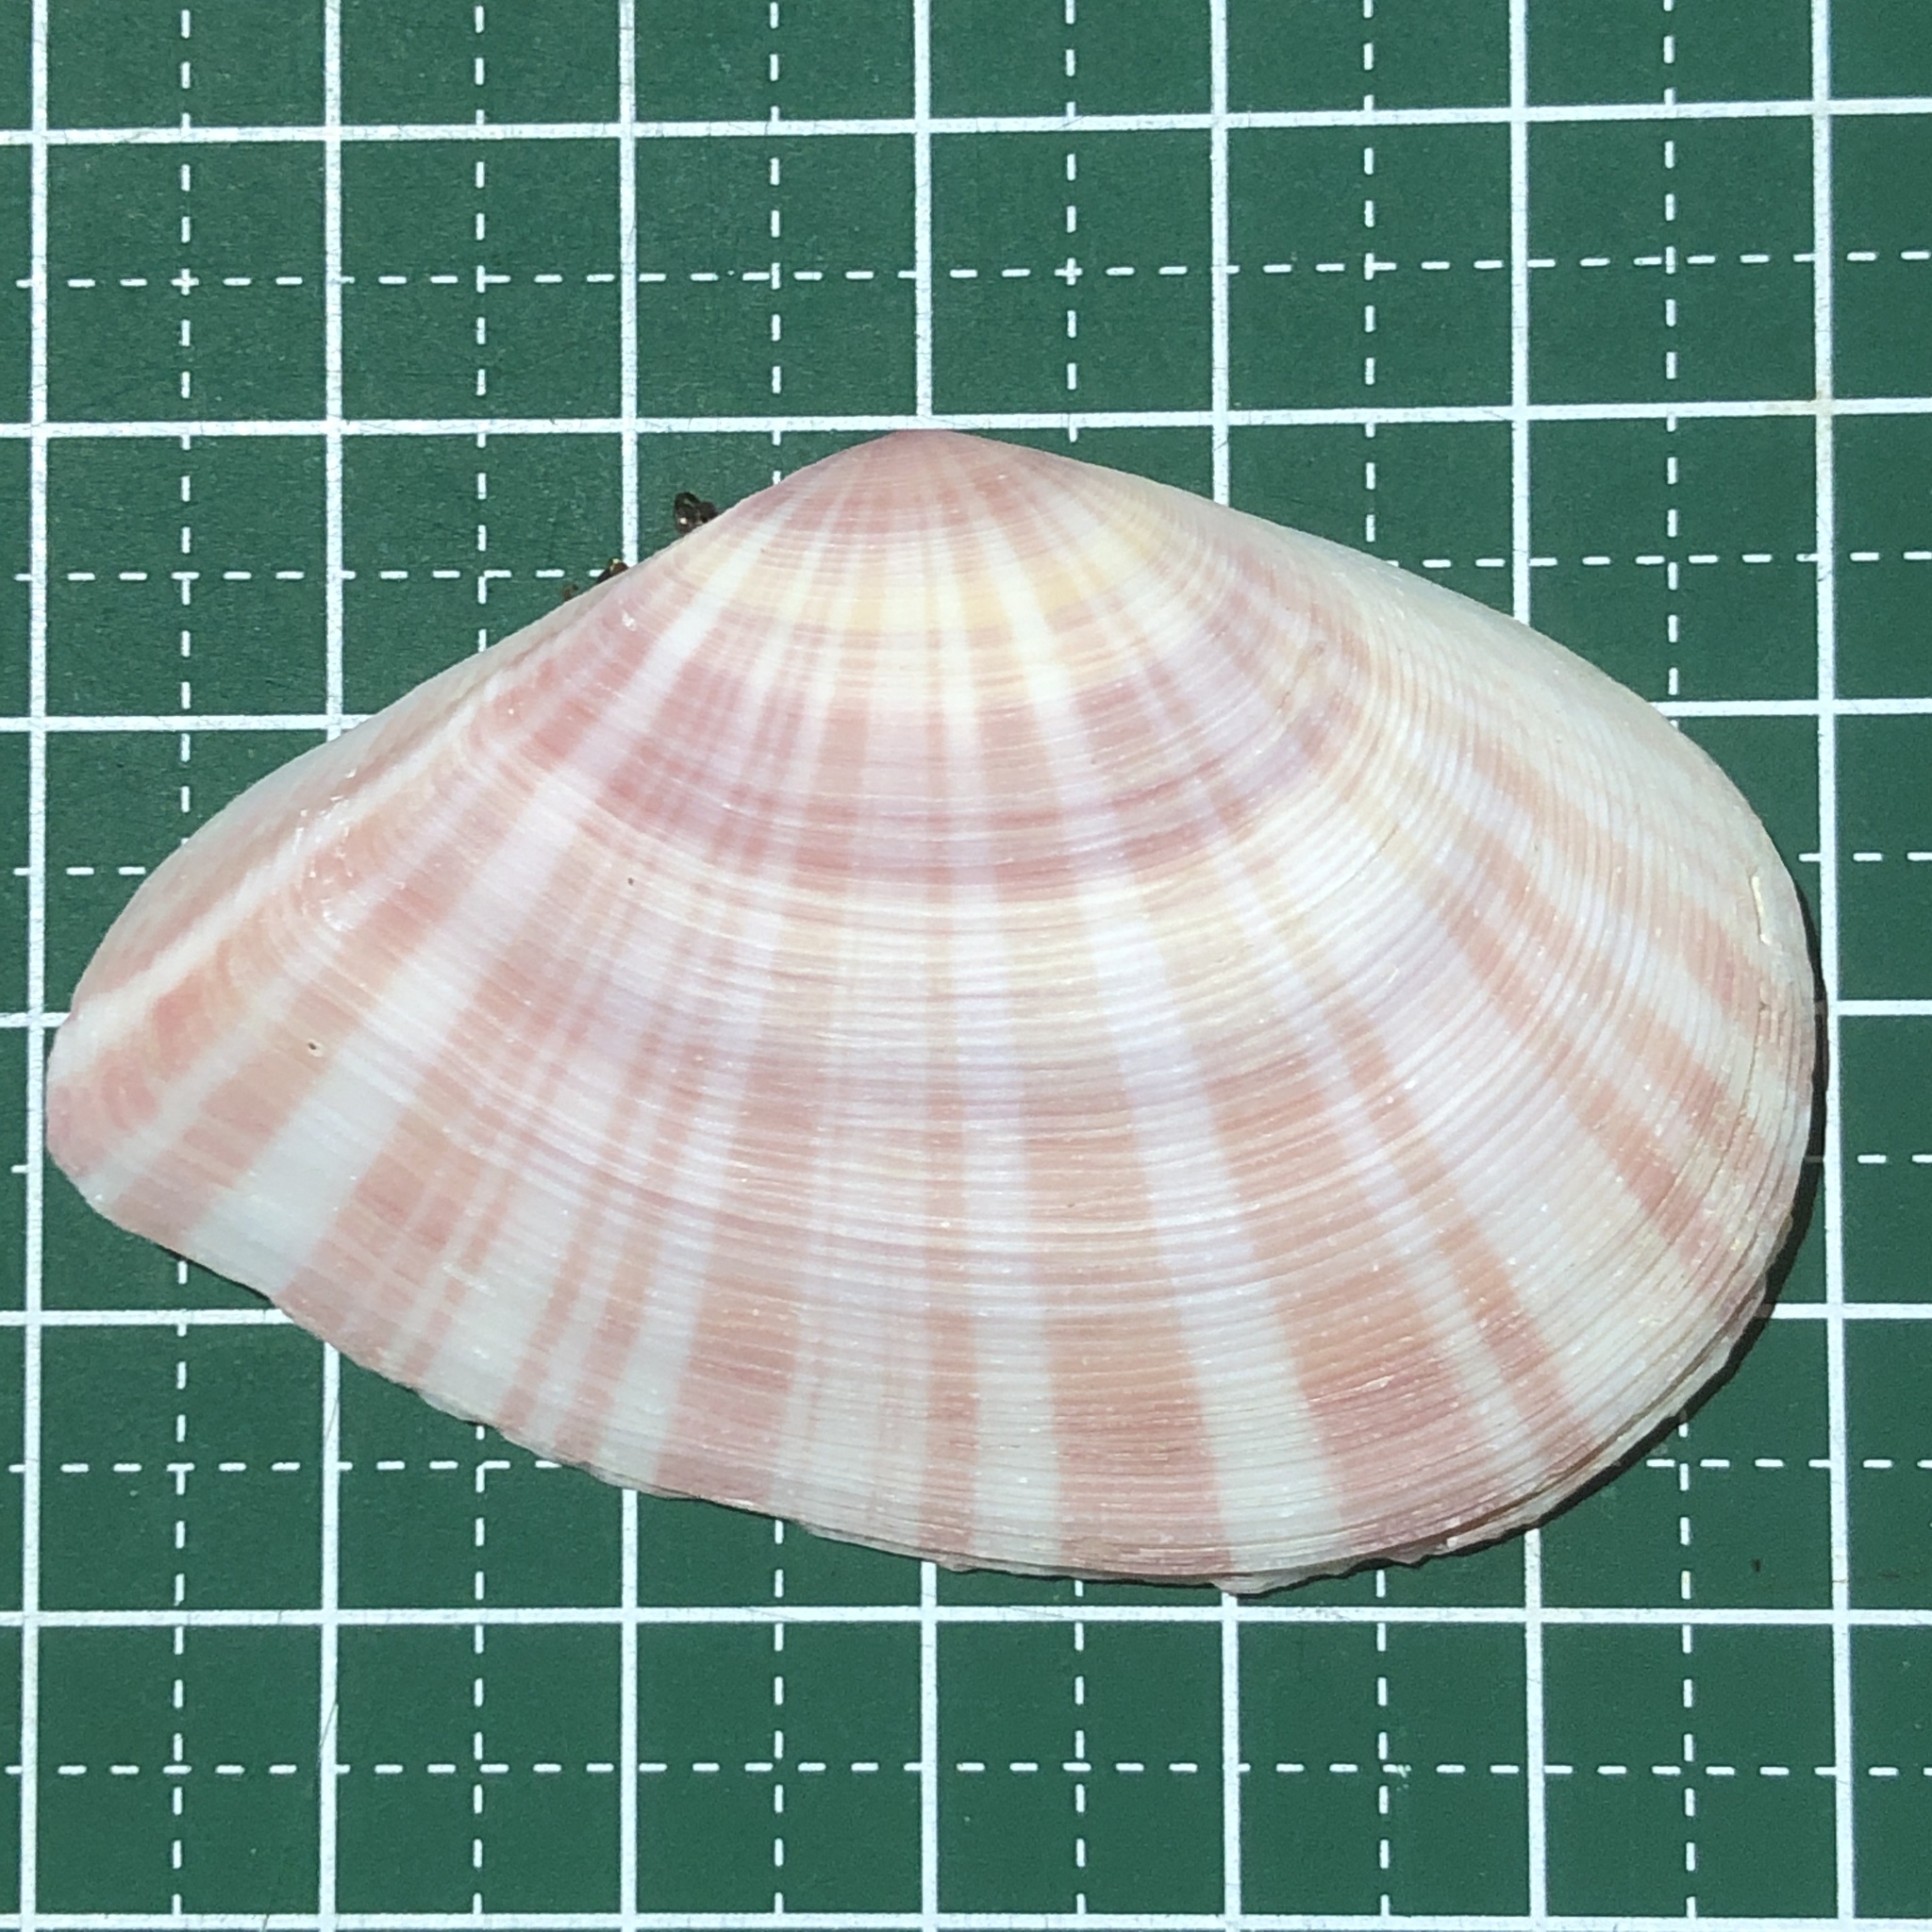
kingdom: Animalia
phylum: Mollusca
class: Bivalvia
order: Cardiida
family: Tellinidae
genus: Tellinella
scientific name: Tellinella virgata
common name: Striped tellin
